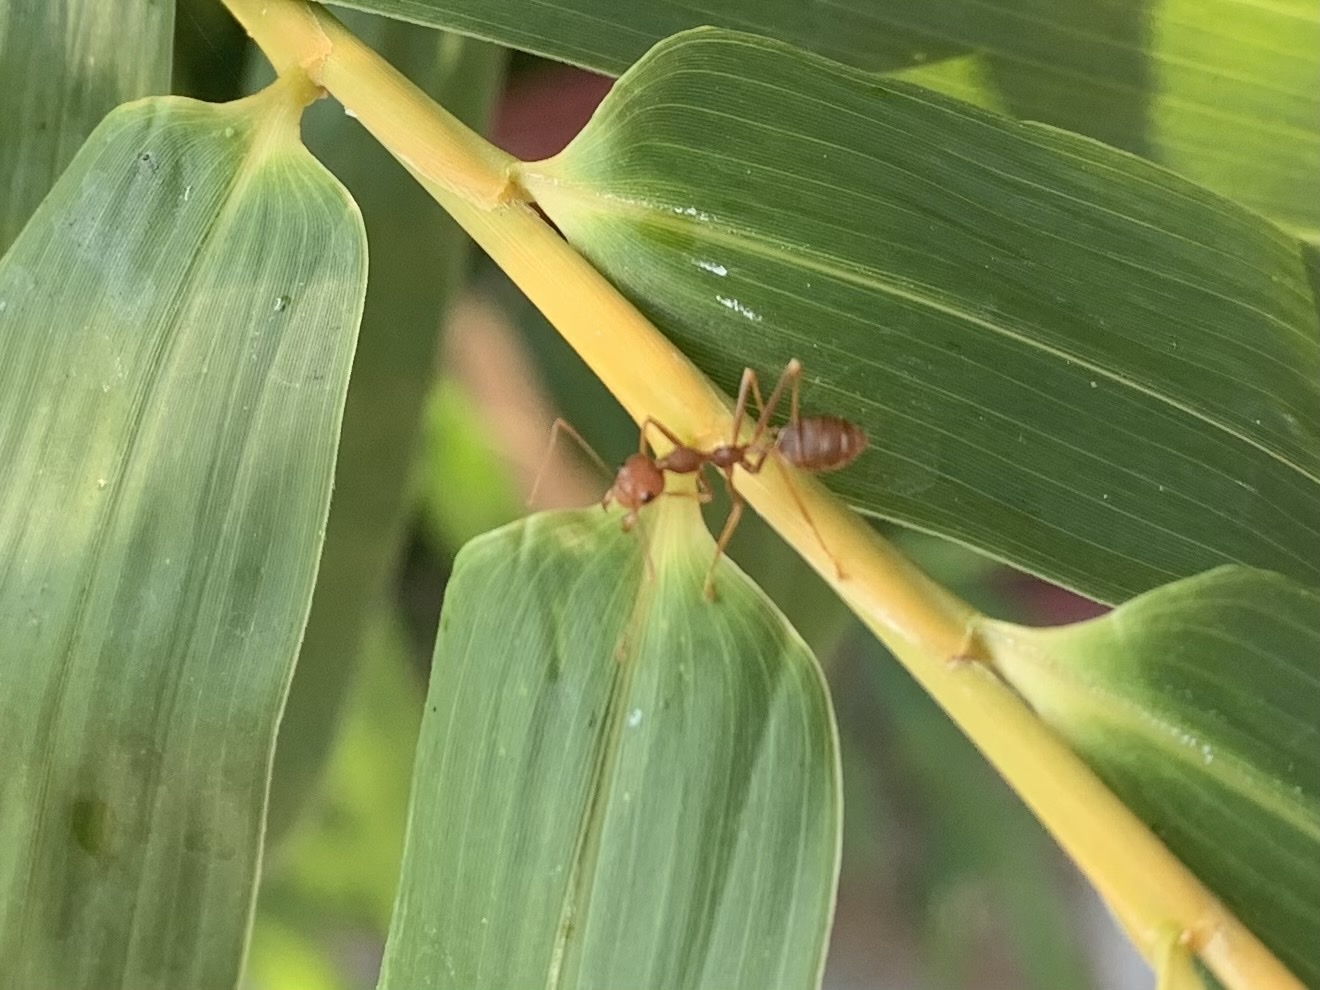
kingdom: Animalia
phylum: Arthropoda
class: Insecta
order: Hymenoptera
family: Formicidae
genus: Oecophylla
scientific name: Oecophylla smaragdina
